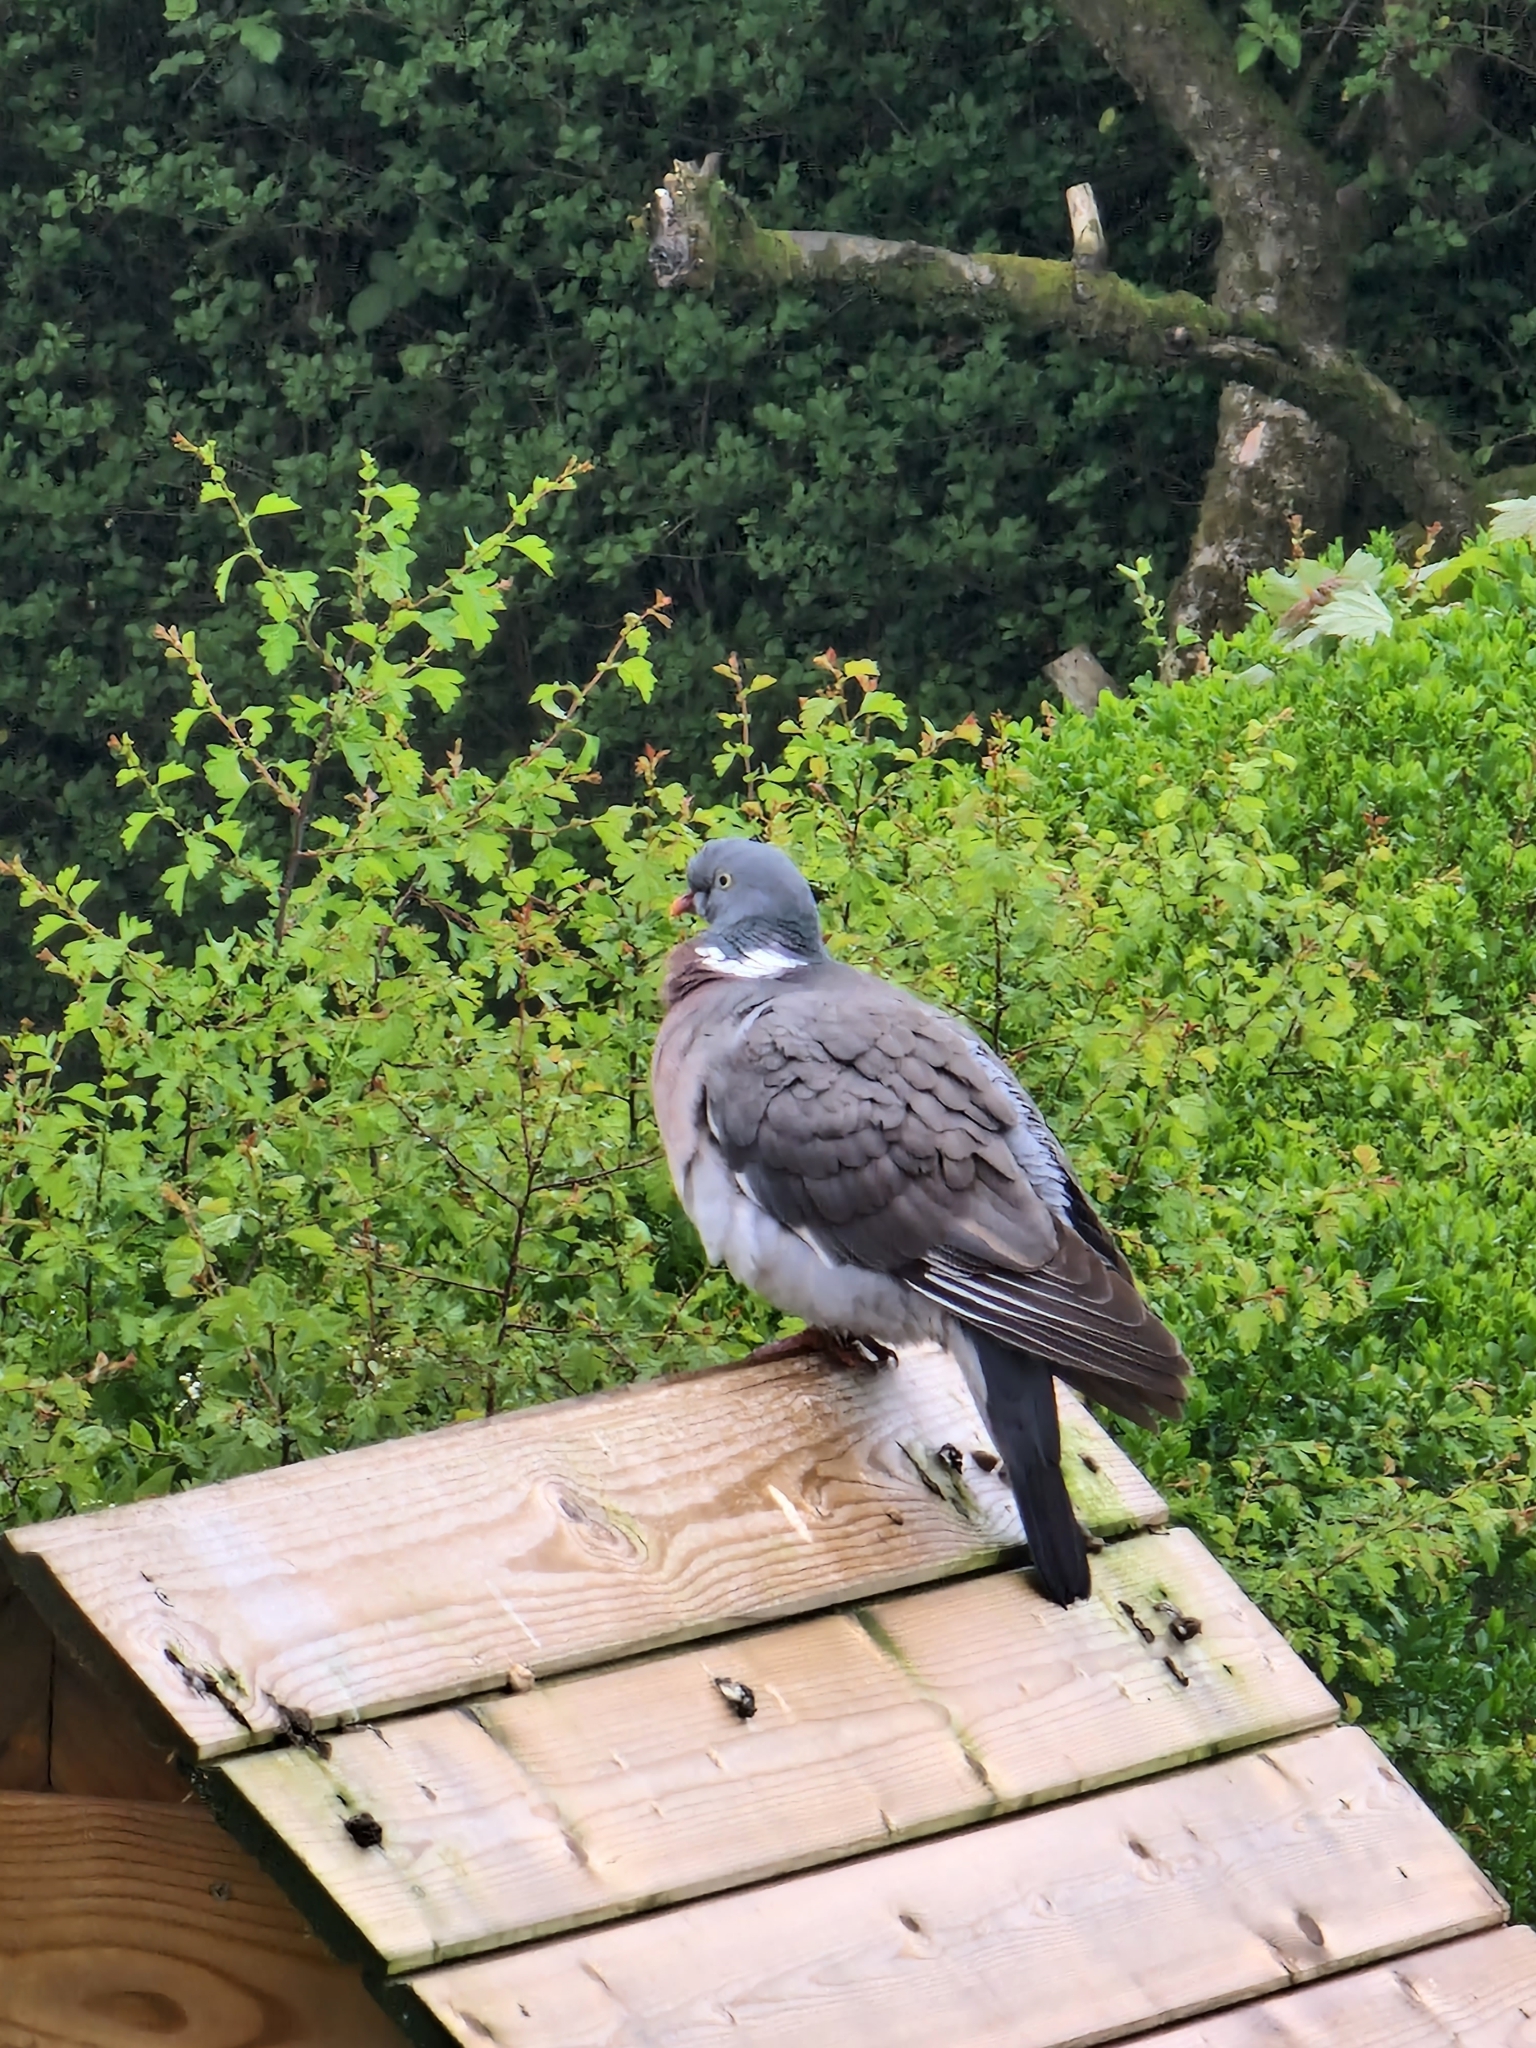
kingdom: Animalia
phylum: Chordata
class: Aves
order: Columbiformes
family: Columbidae
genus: Columba
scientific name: Columba palumbus
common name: Common wood pigeon
